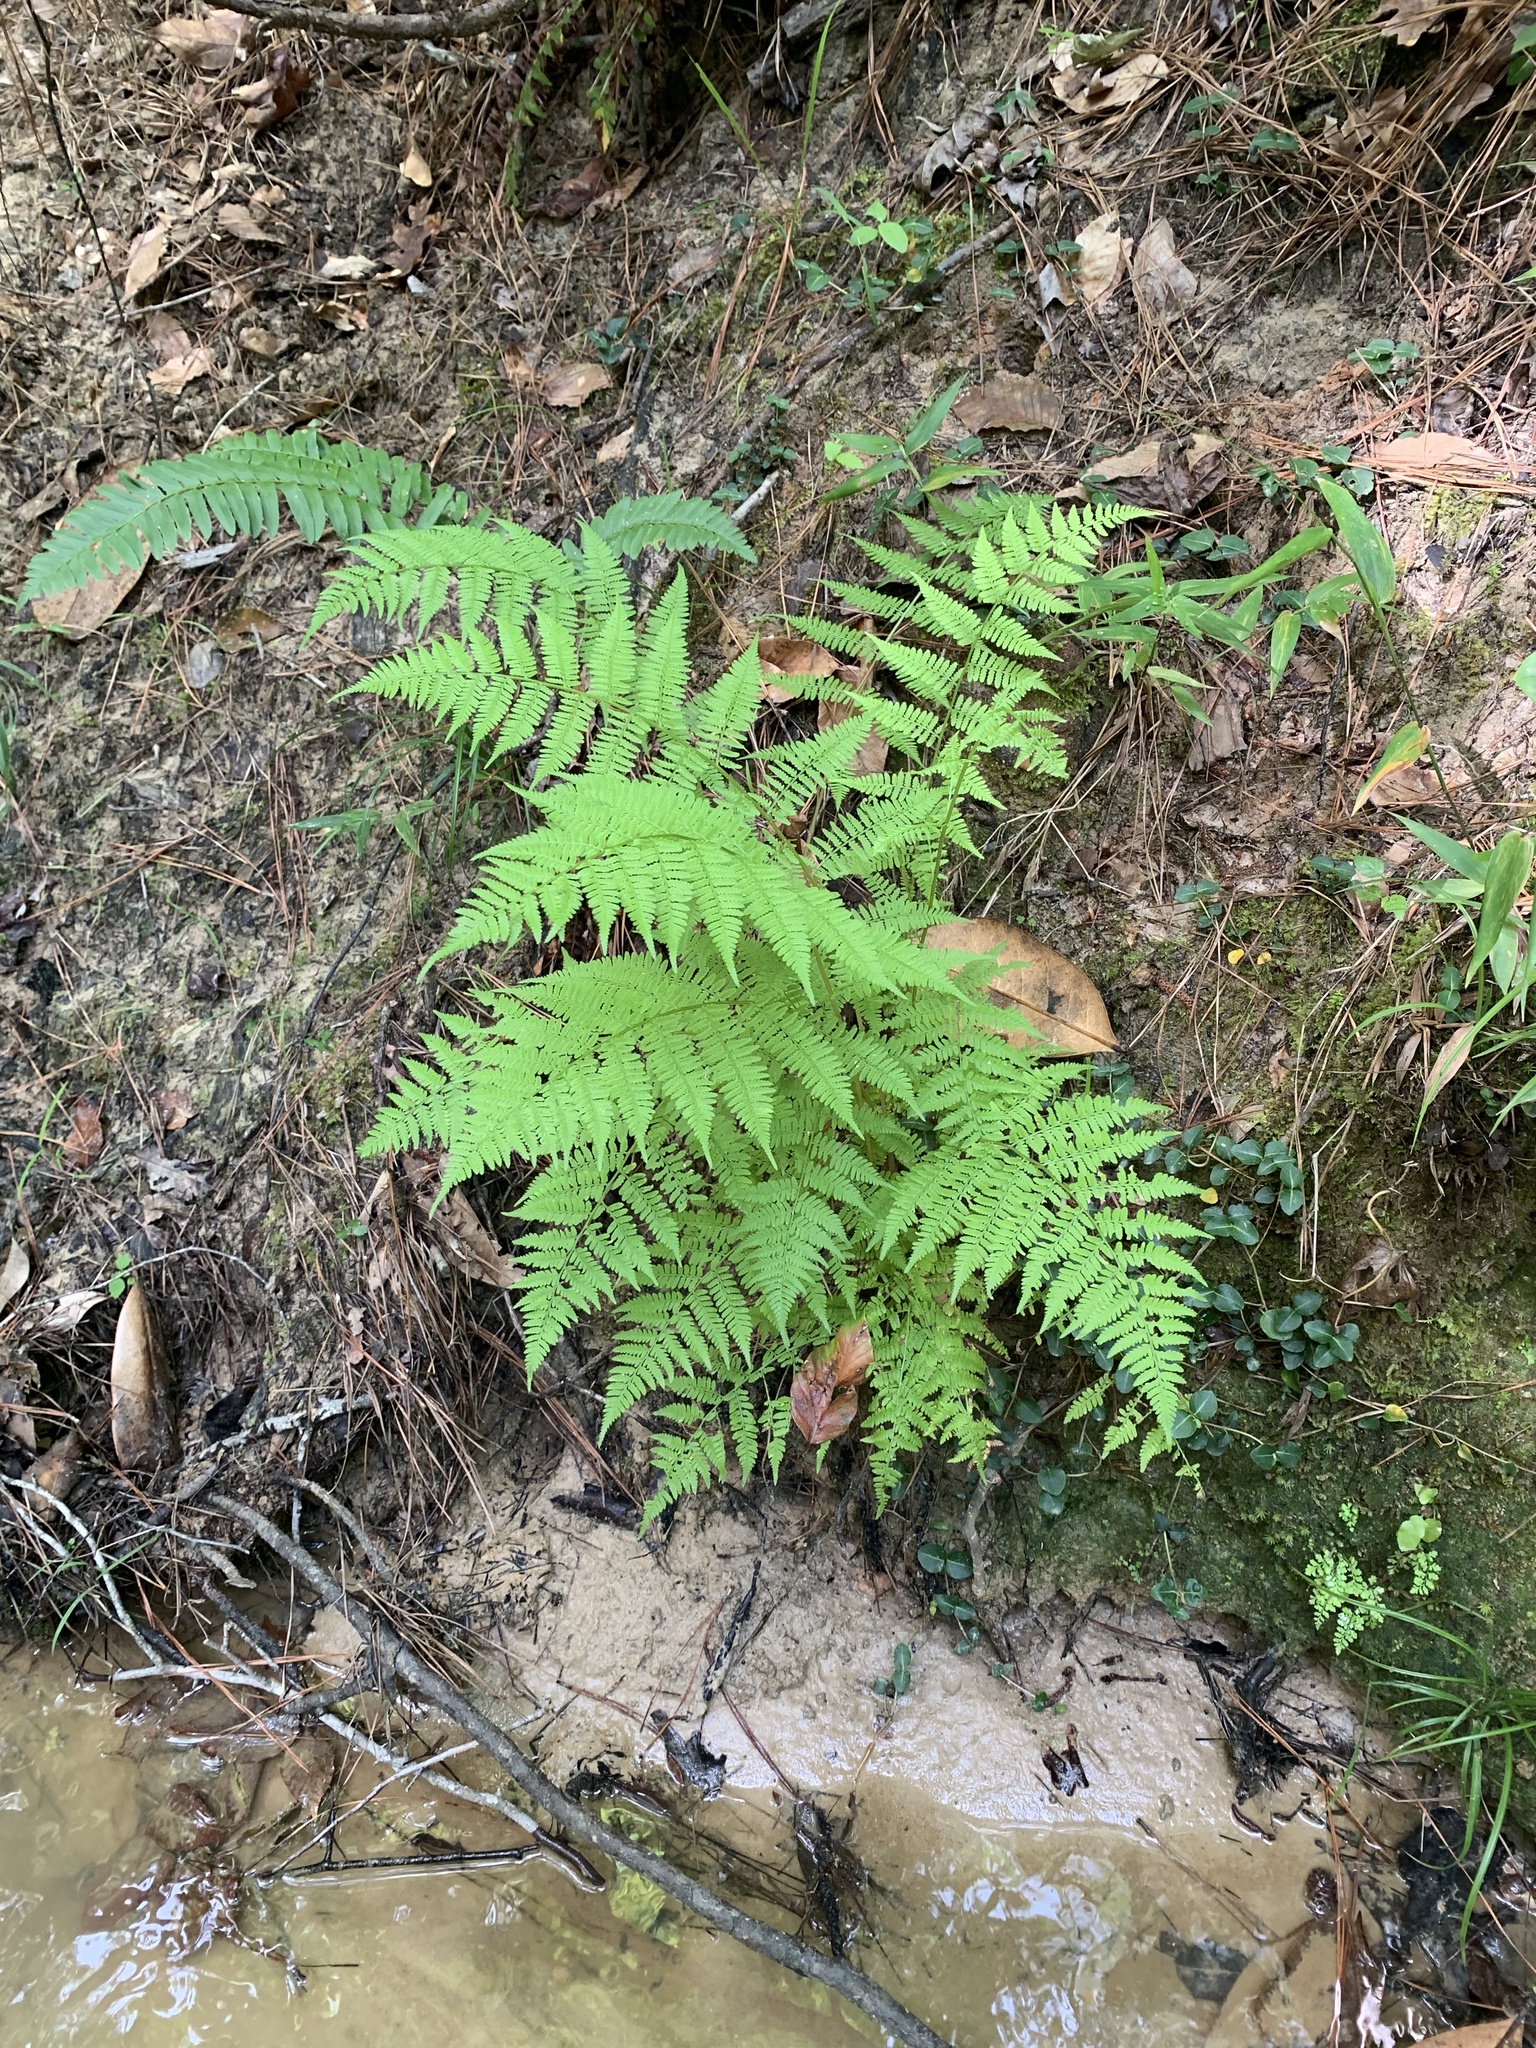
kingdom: Plantae
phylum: Tracheophyta
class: Polypodiopsida
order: Polypodiales
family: Athyriaceae
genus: Athyrium
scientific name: Athyrium asplenioides
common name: Southern lady fern
